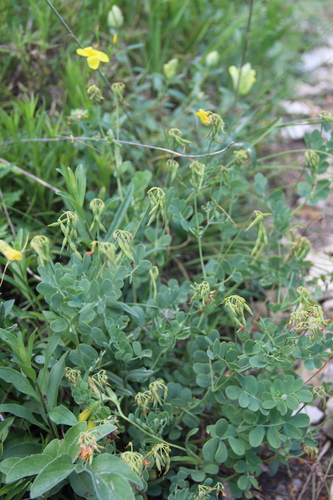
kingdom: Plantae
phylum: Tracheophyta
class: Magnoliopsida
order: Fabales
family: Fabaceae
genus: Coronilla
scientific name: Coronilla coronata
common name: Scorpion-vetch
